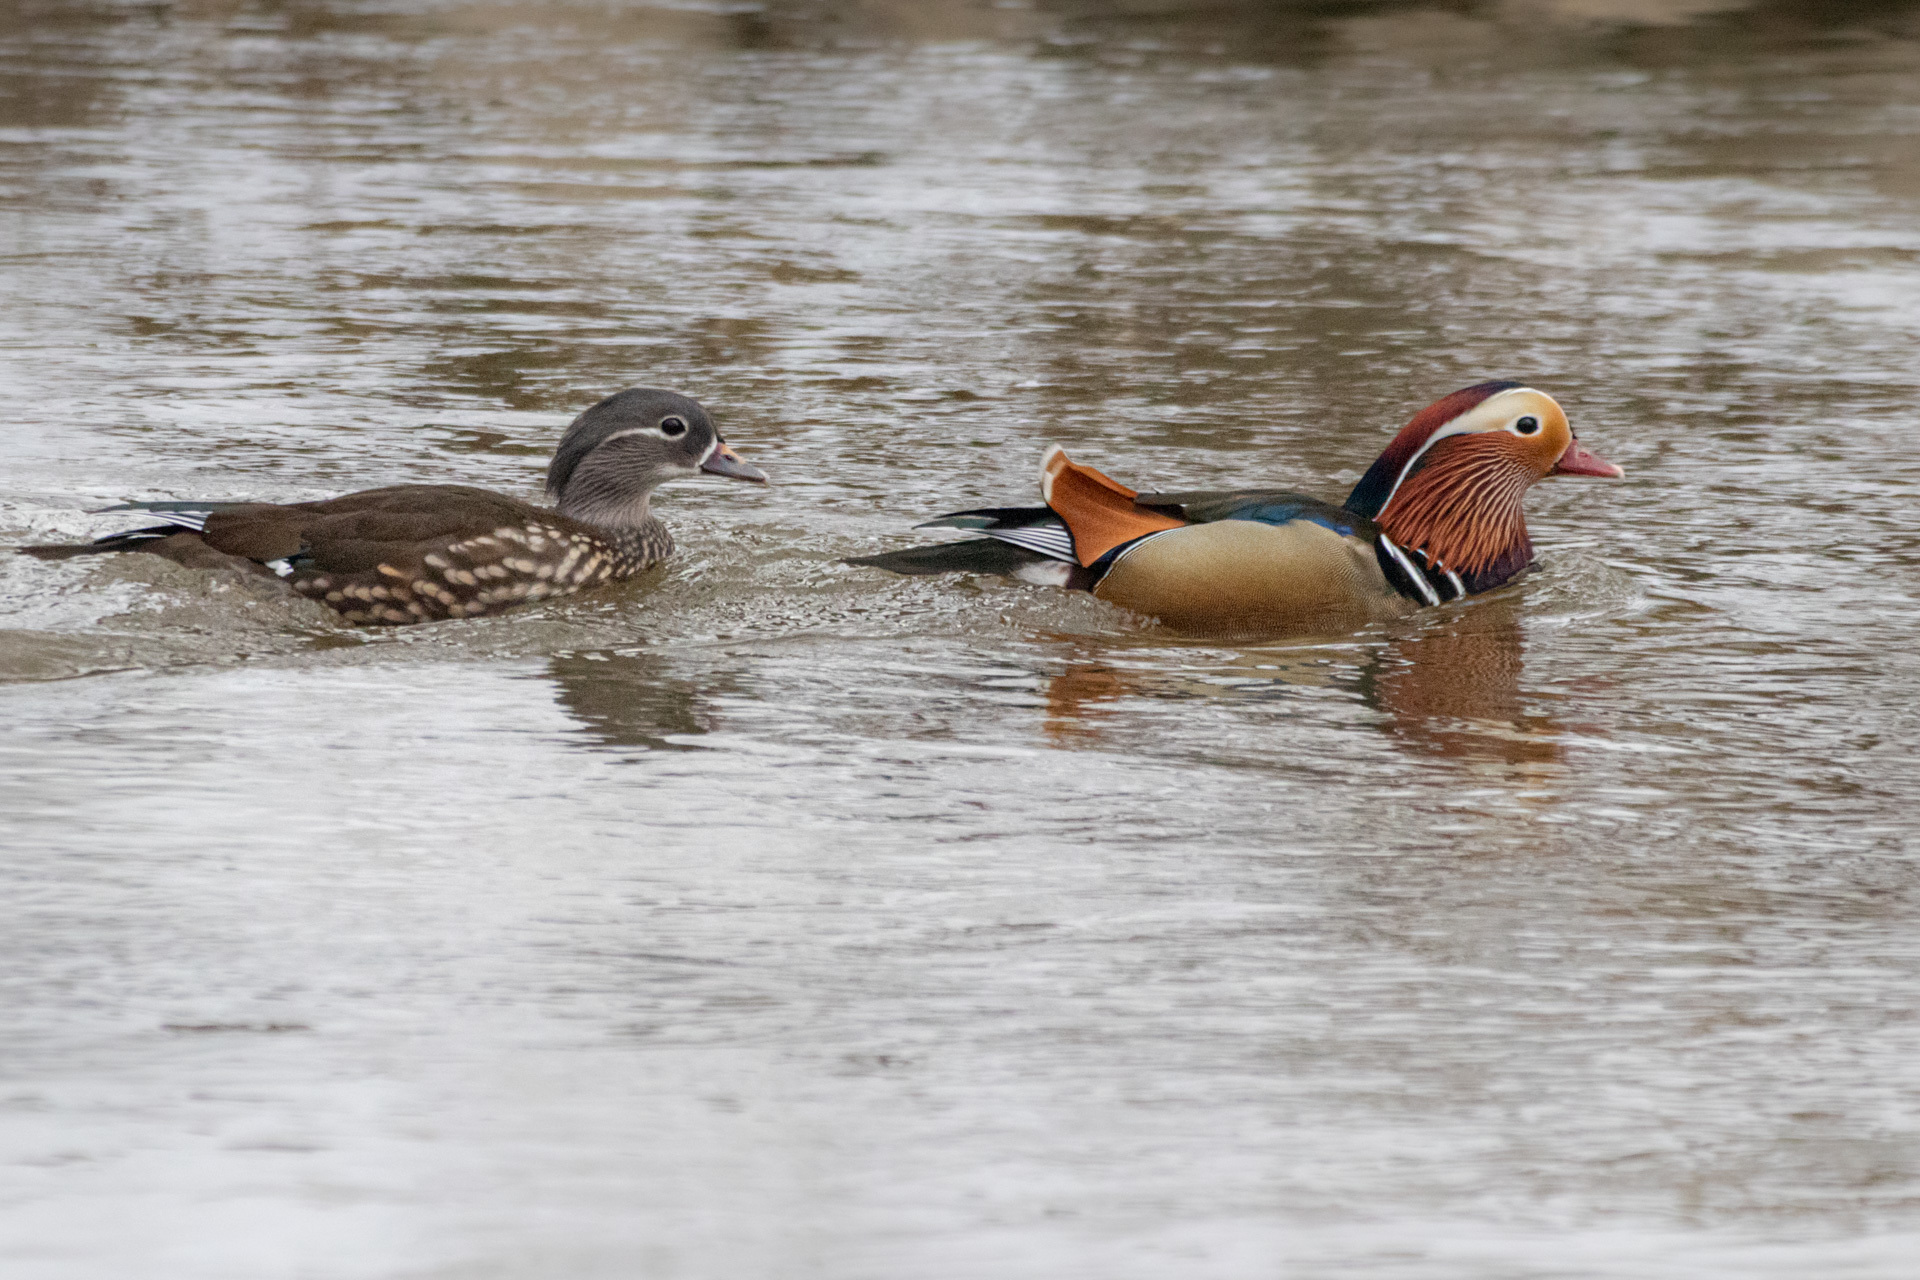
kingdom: Animalia
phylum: Chordata
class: Aves
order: Anseriformes
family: Anatidae
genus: Aix
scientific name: Aix galericulata
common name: Mandarin duck
